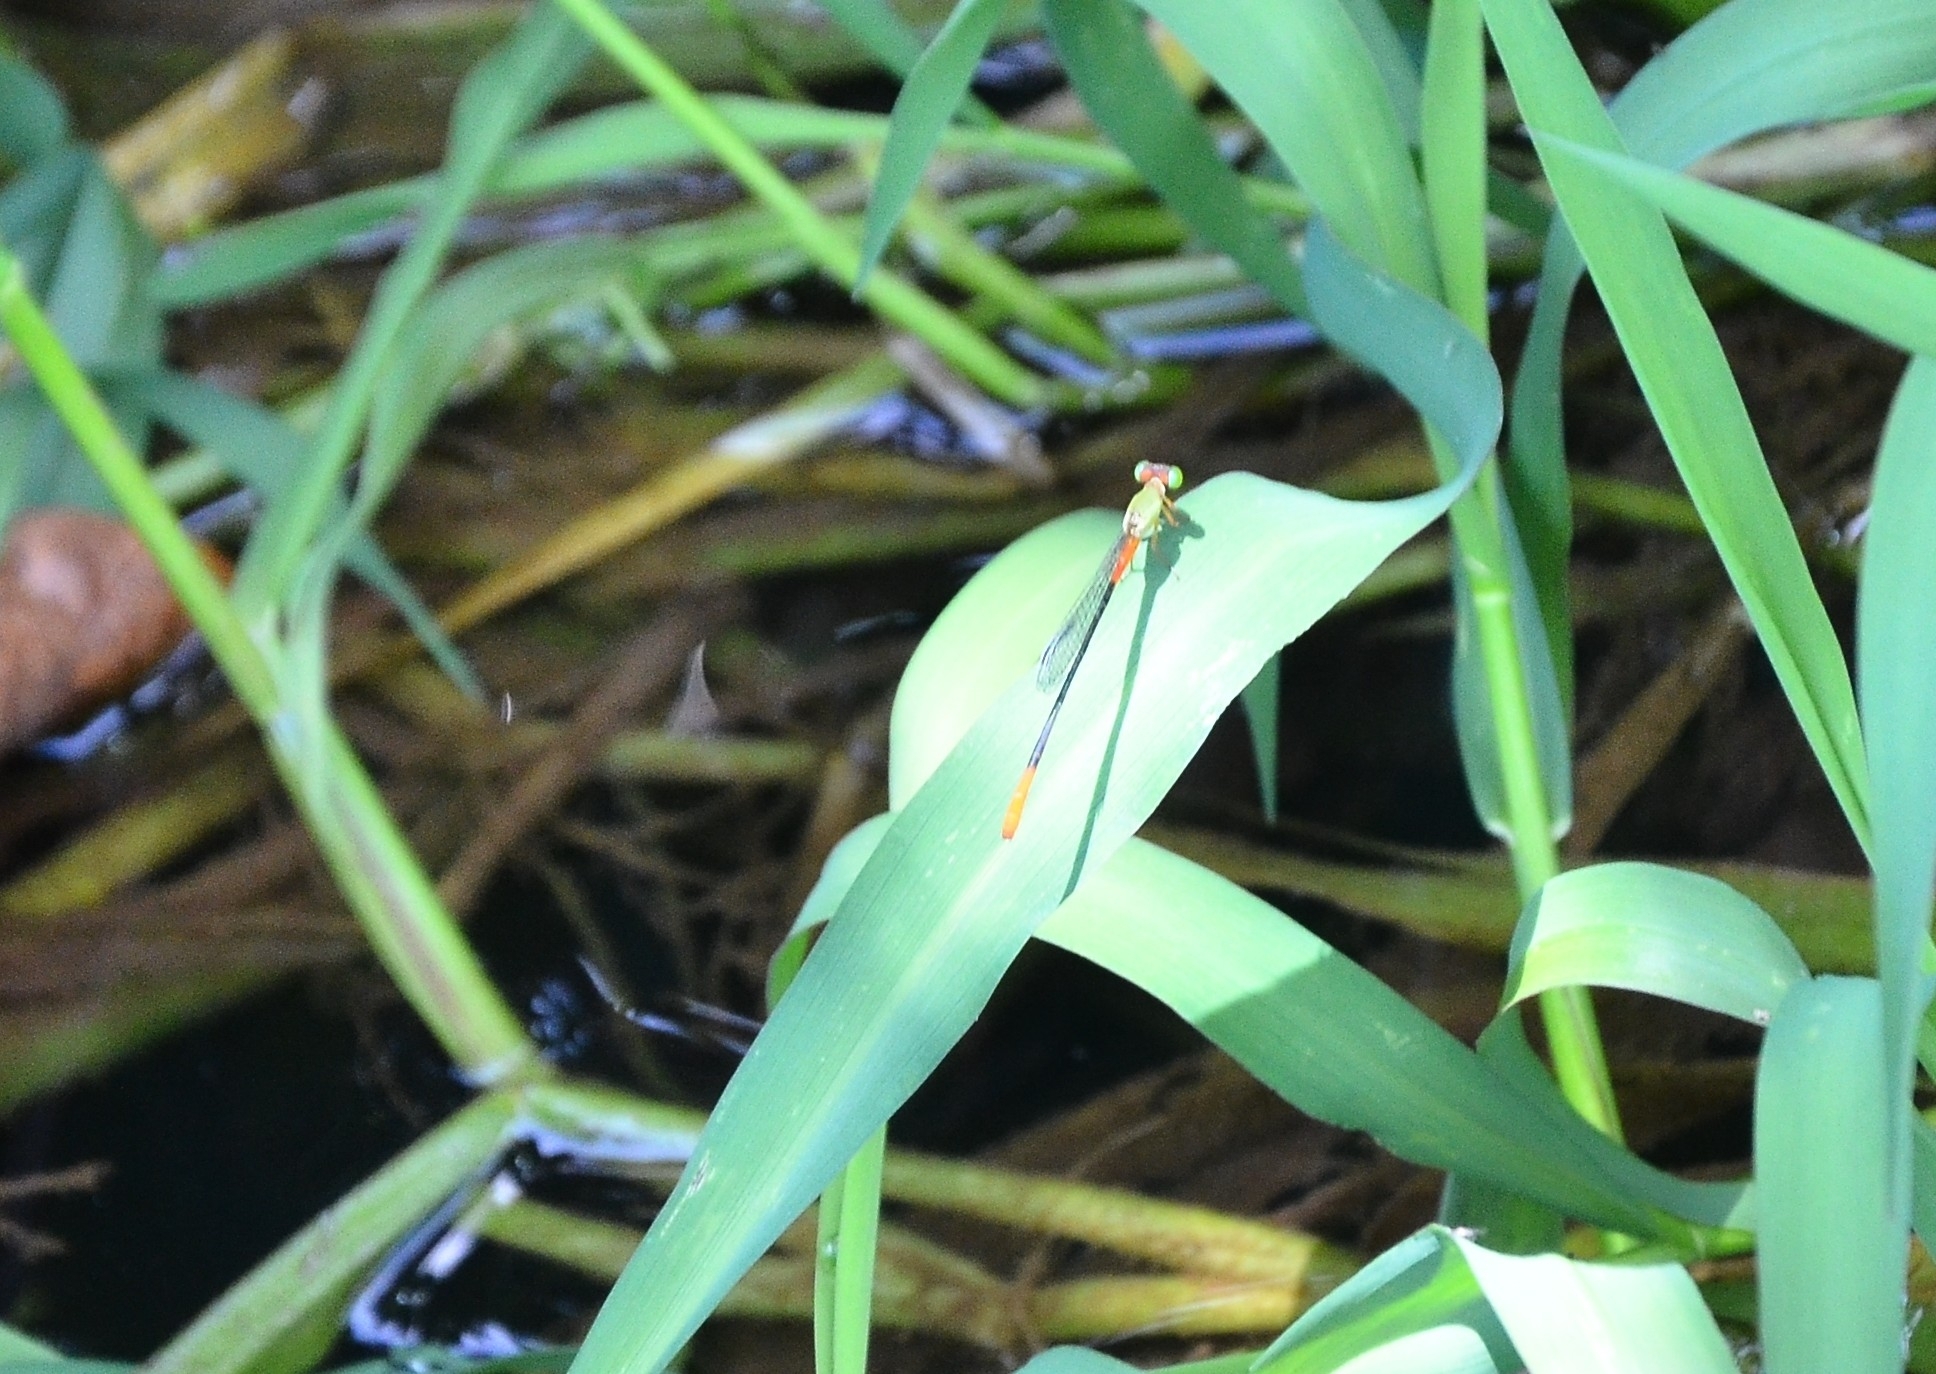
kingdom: Animalia
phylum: Arthropoda
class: Insecta
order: Odonata
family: Coenagrionidae
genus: Ceriagrion
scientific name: Ceriagrion cerinorubellum
